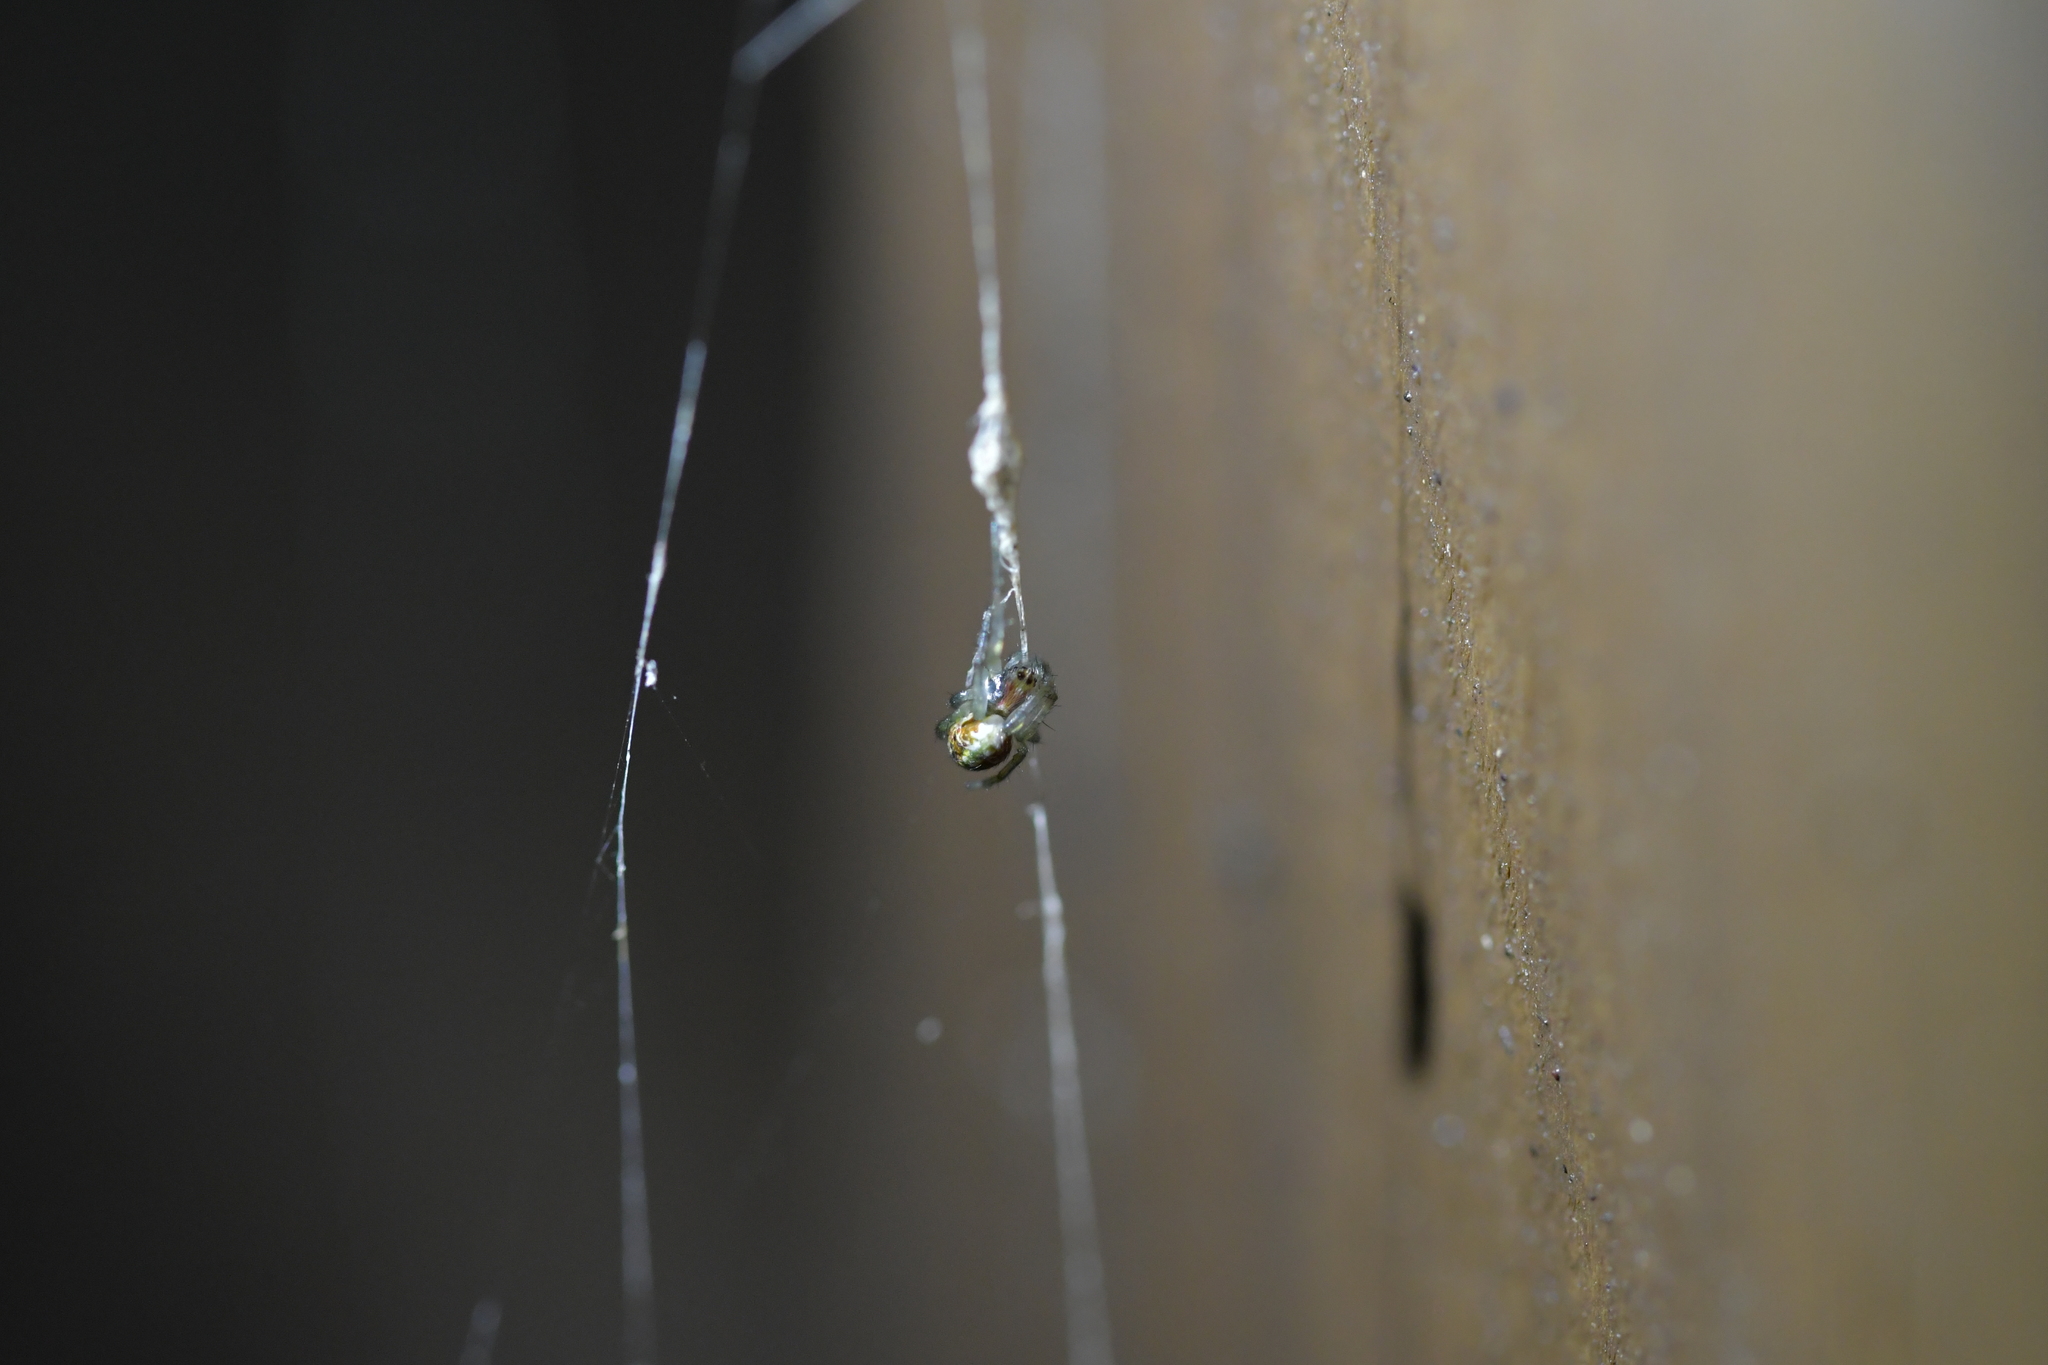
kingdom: Animalia
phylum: Arthropoda
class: Arachnida
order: Araneae
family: Araneidae
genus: Novaranea
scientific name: Novaranea queribunda
